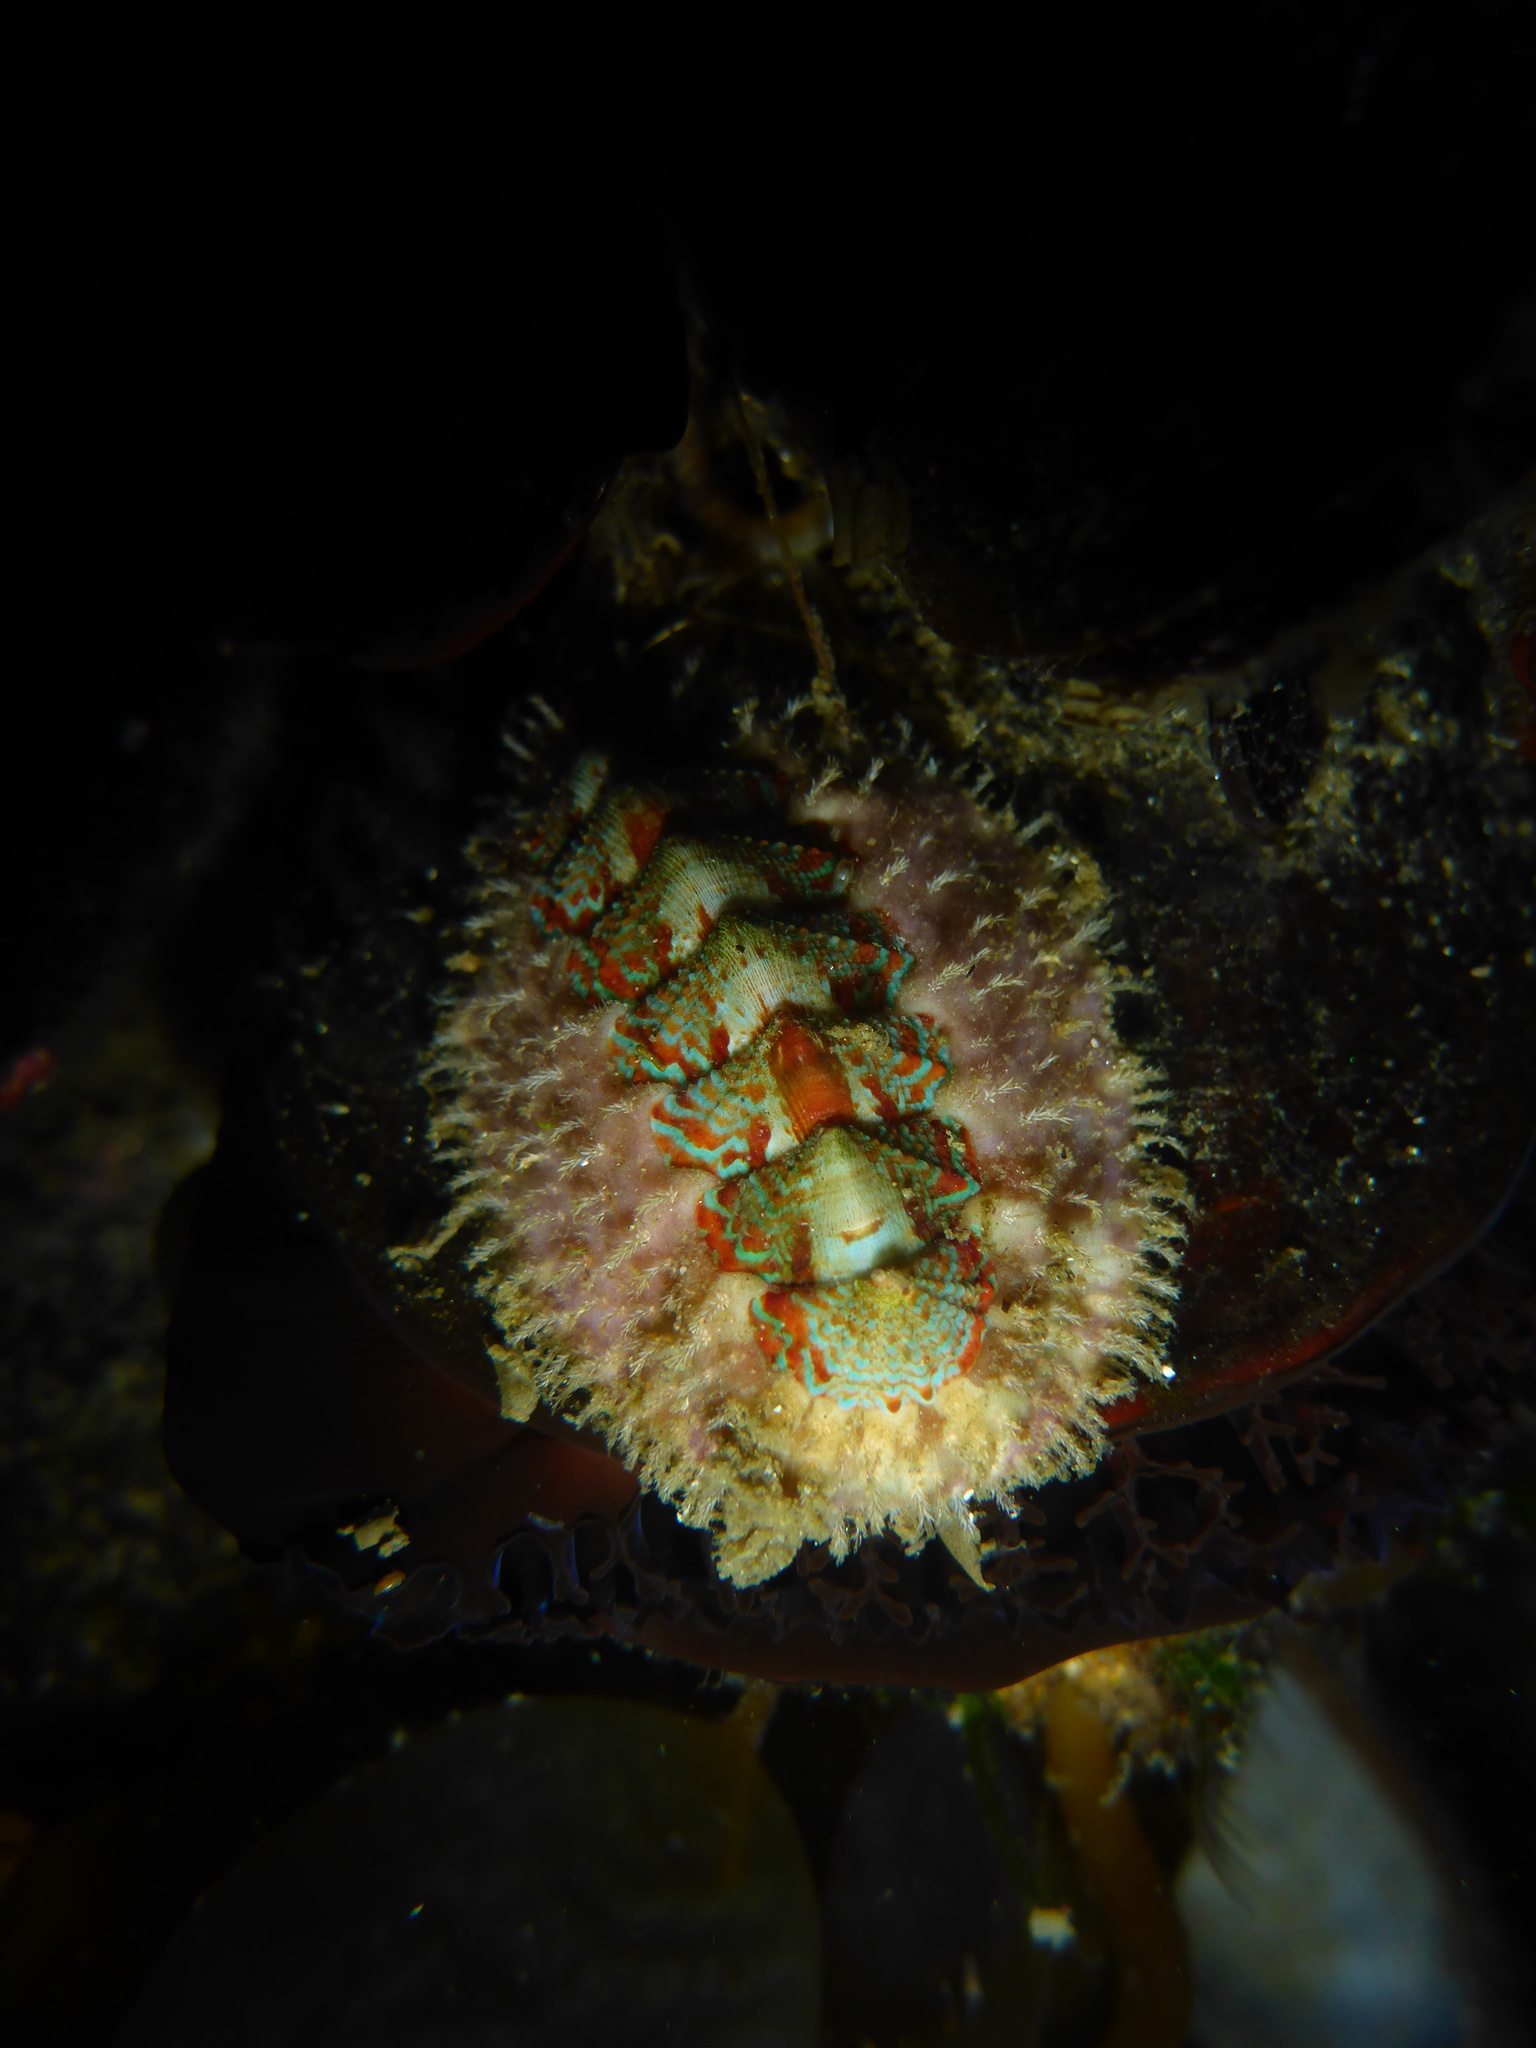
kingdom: Animalia
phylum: Mollusca
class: Polyplacophora
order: Chitonida
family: Mopaliidae
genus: Mopalia
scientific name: Mopalia spectabilis
